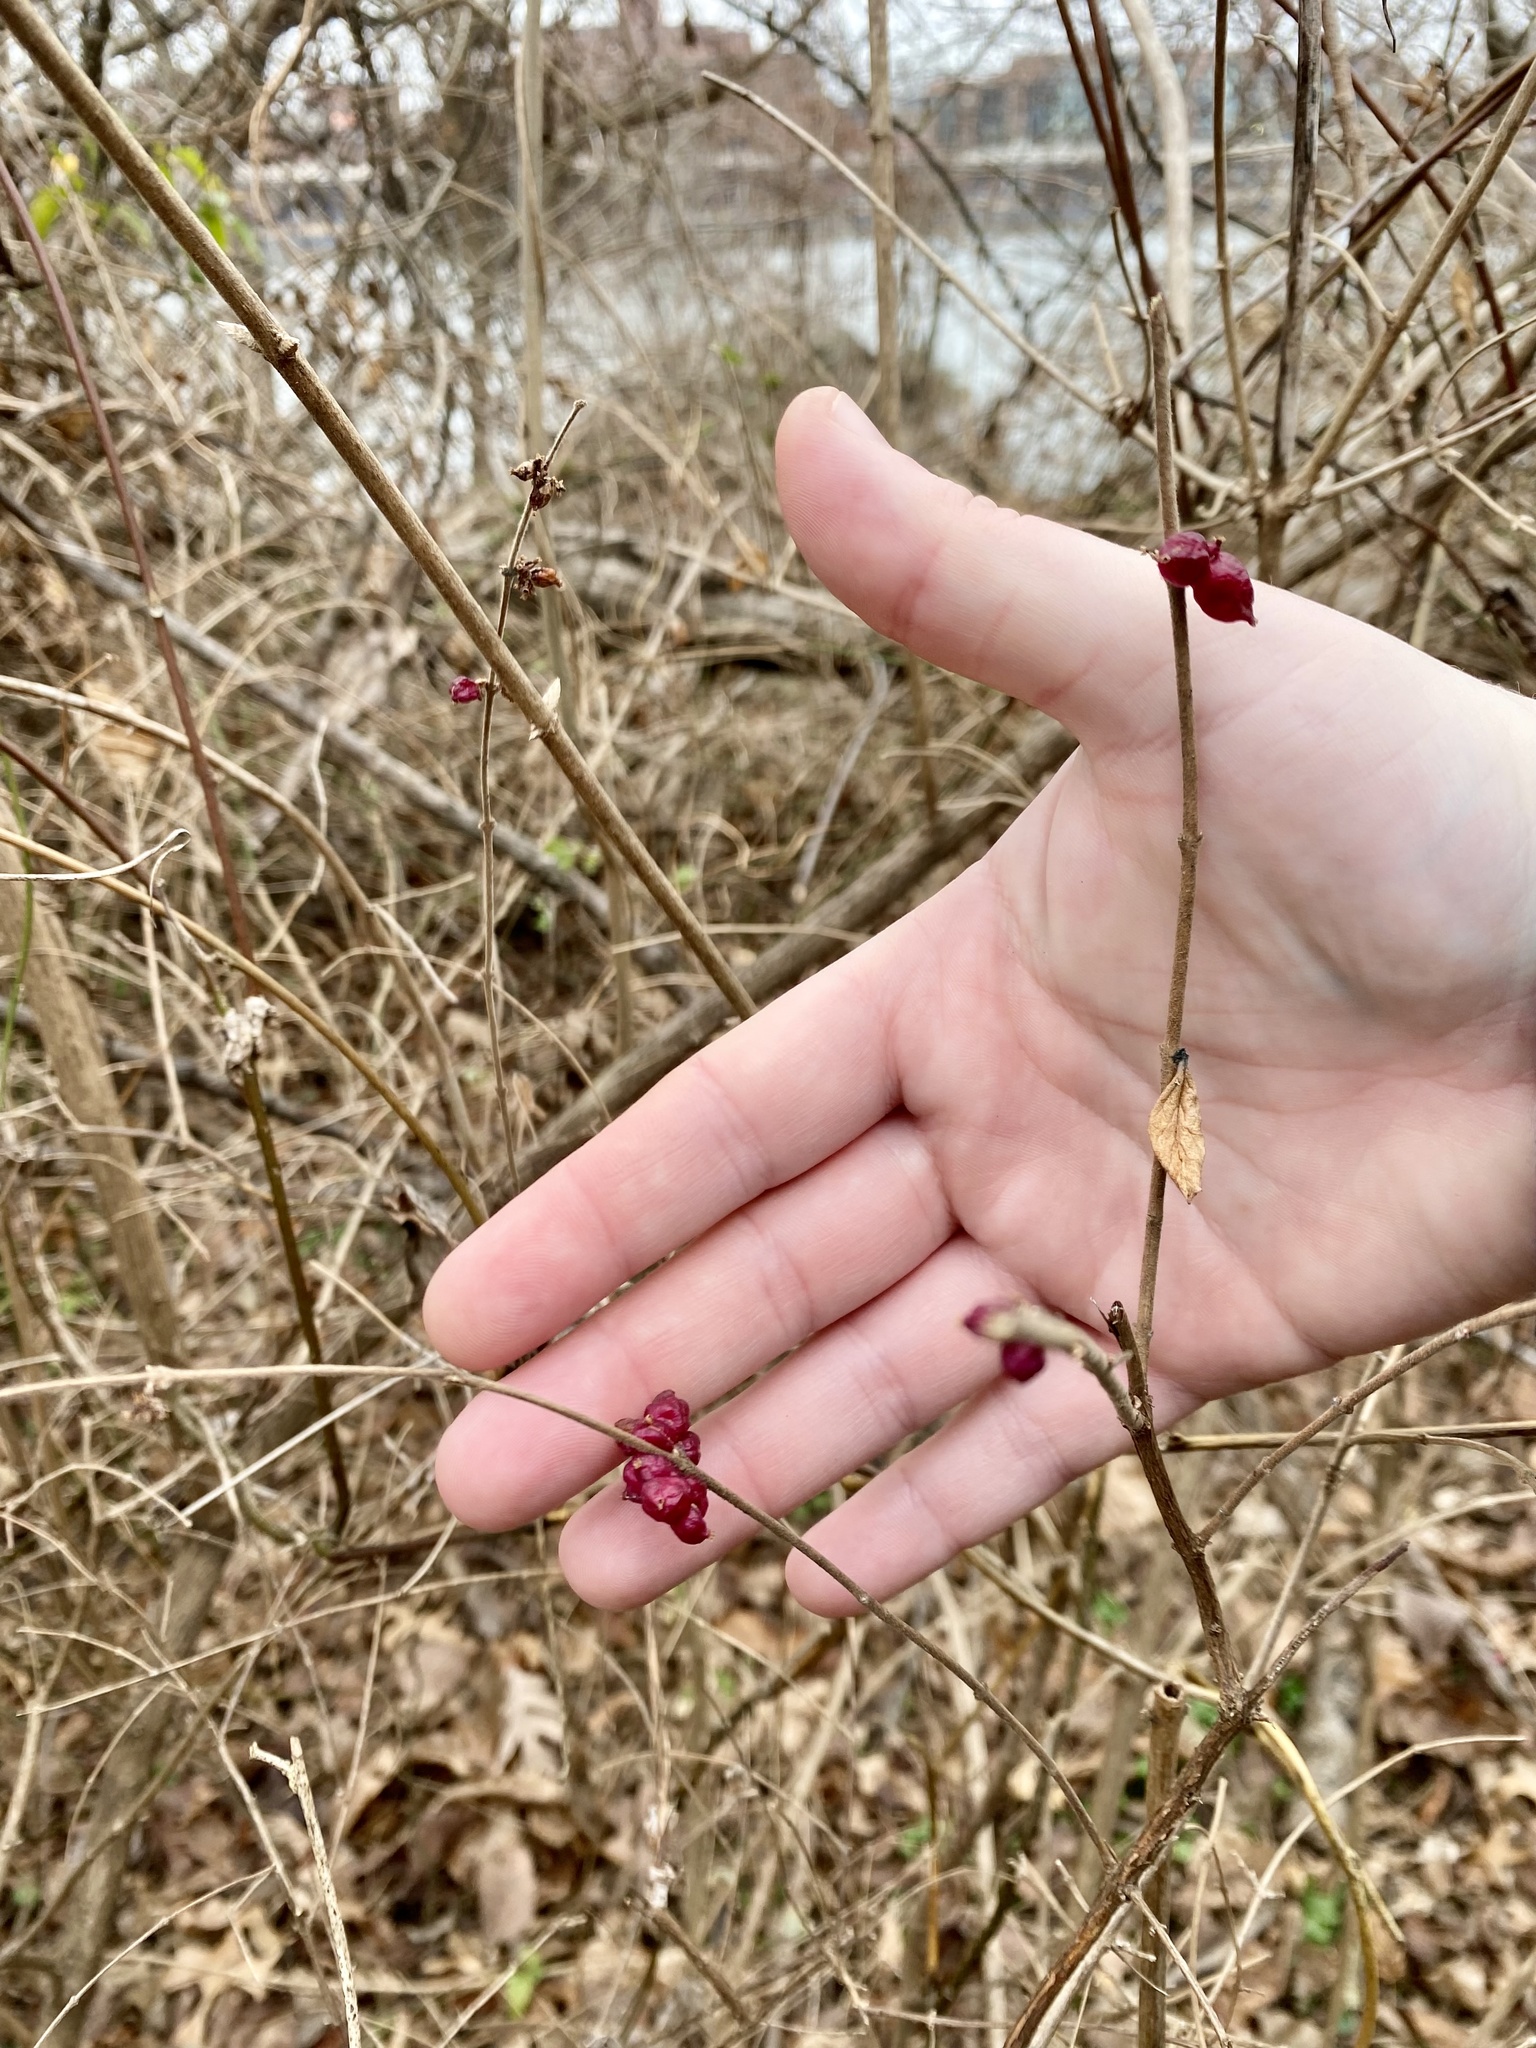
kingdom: Plantae
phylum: Tracheophyta
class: Magnoliopsida
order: Dipsacales
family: Caprifoliaceae
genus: Symphoricarpos
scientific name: Symphoricarpos orbiculatus
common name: Coralberry
